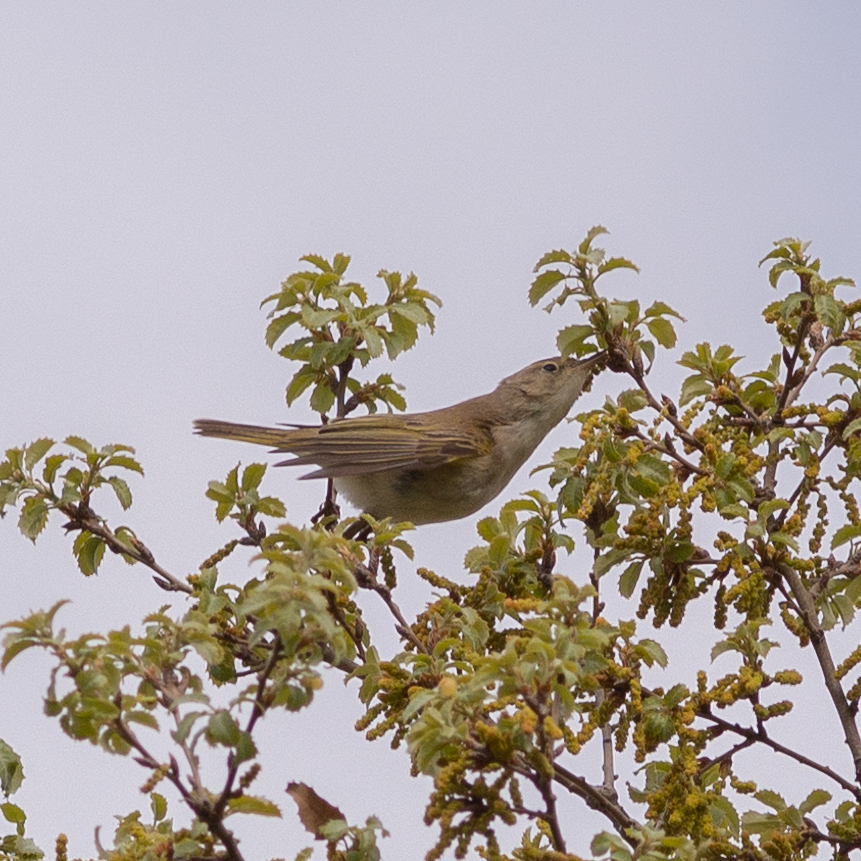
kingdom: Animalia
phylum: Chordata
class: Aves
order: Passeriformes
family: Phylloscopidae
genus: Phylloscopus
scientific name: Phylloscopus bonelli
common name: Western bonelli's warbler
